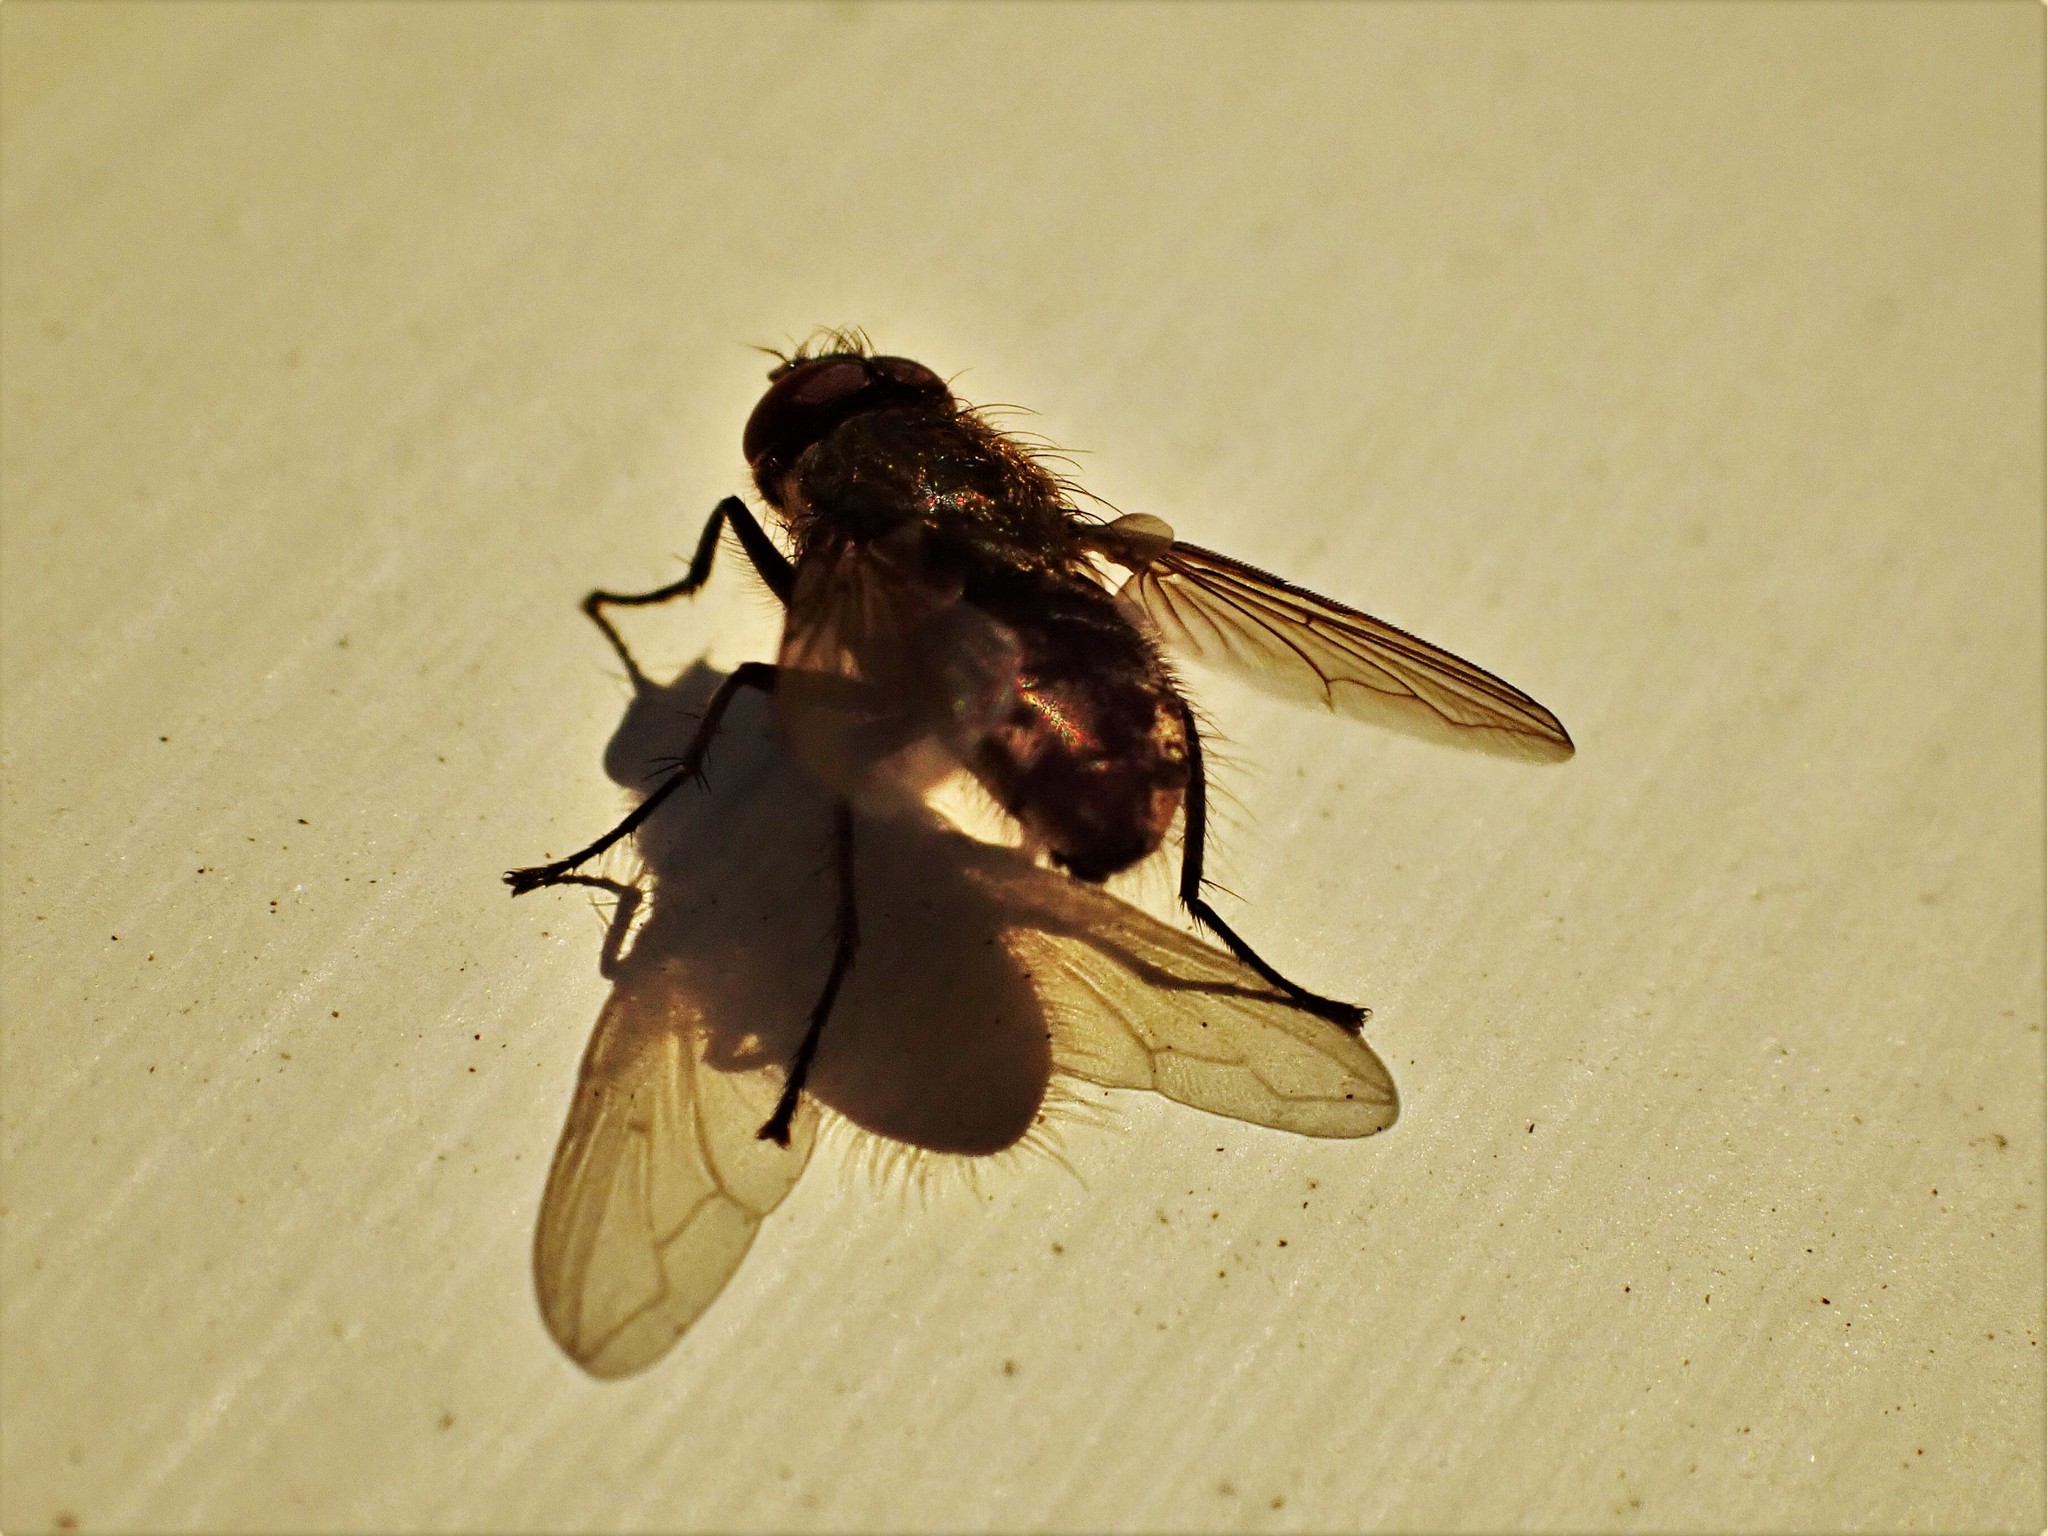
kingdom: Animalia
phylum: Arthropoda
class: Insecta
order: Diptera
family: Polleniidae
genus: Pollenia
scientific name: Pollenia pediculata
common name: Tufted clusterfly
